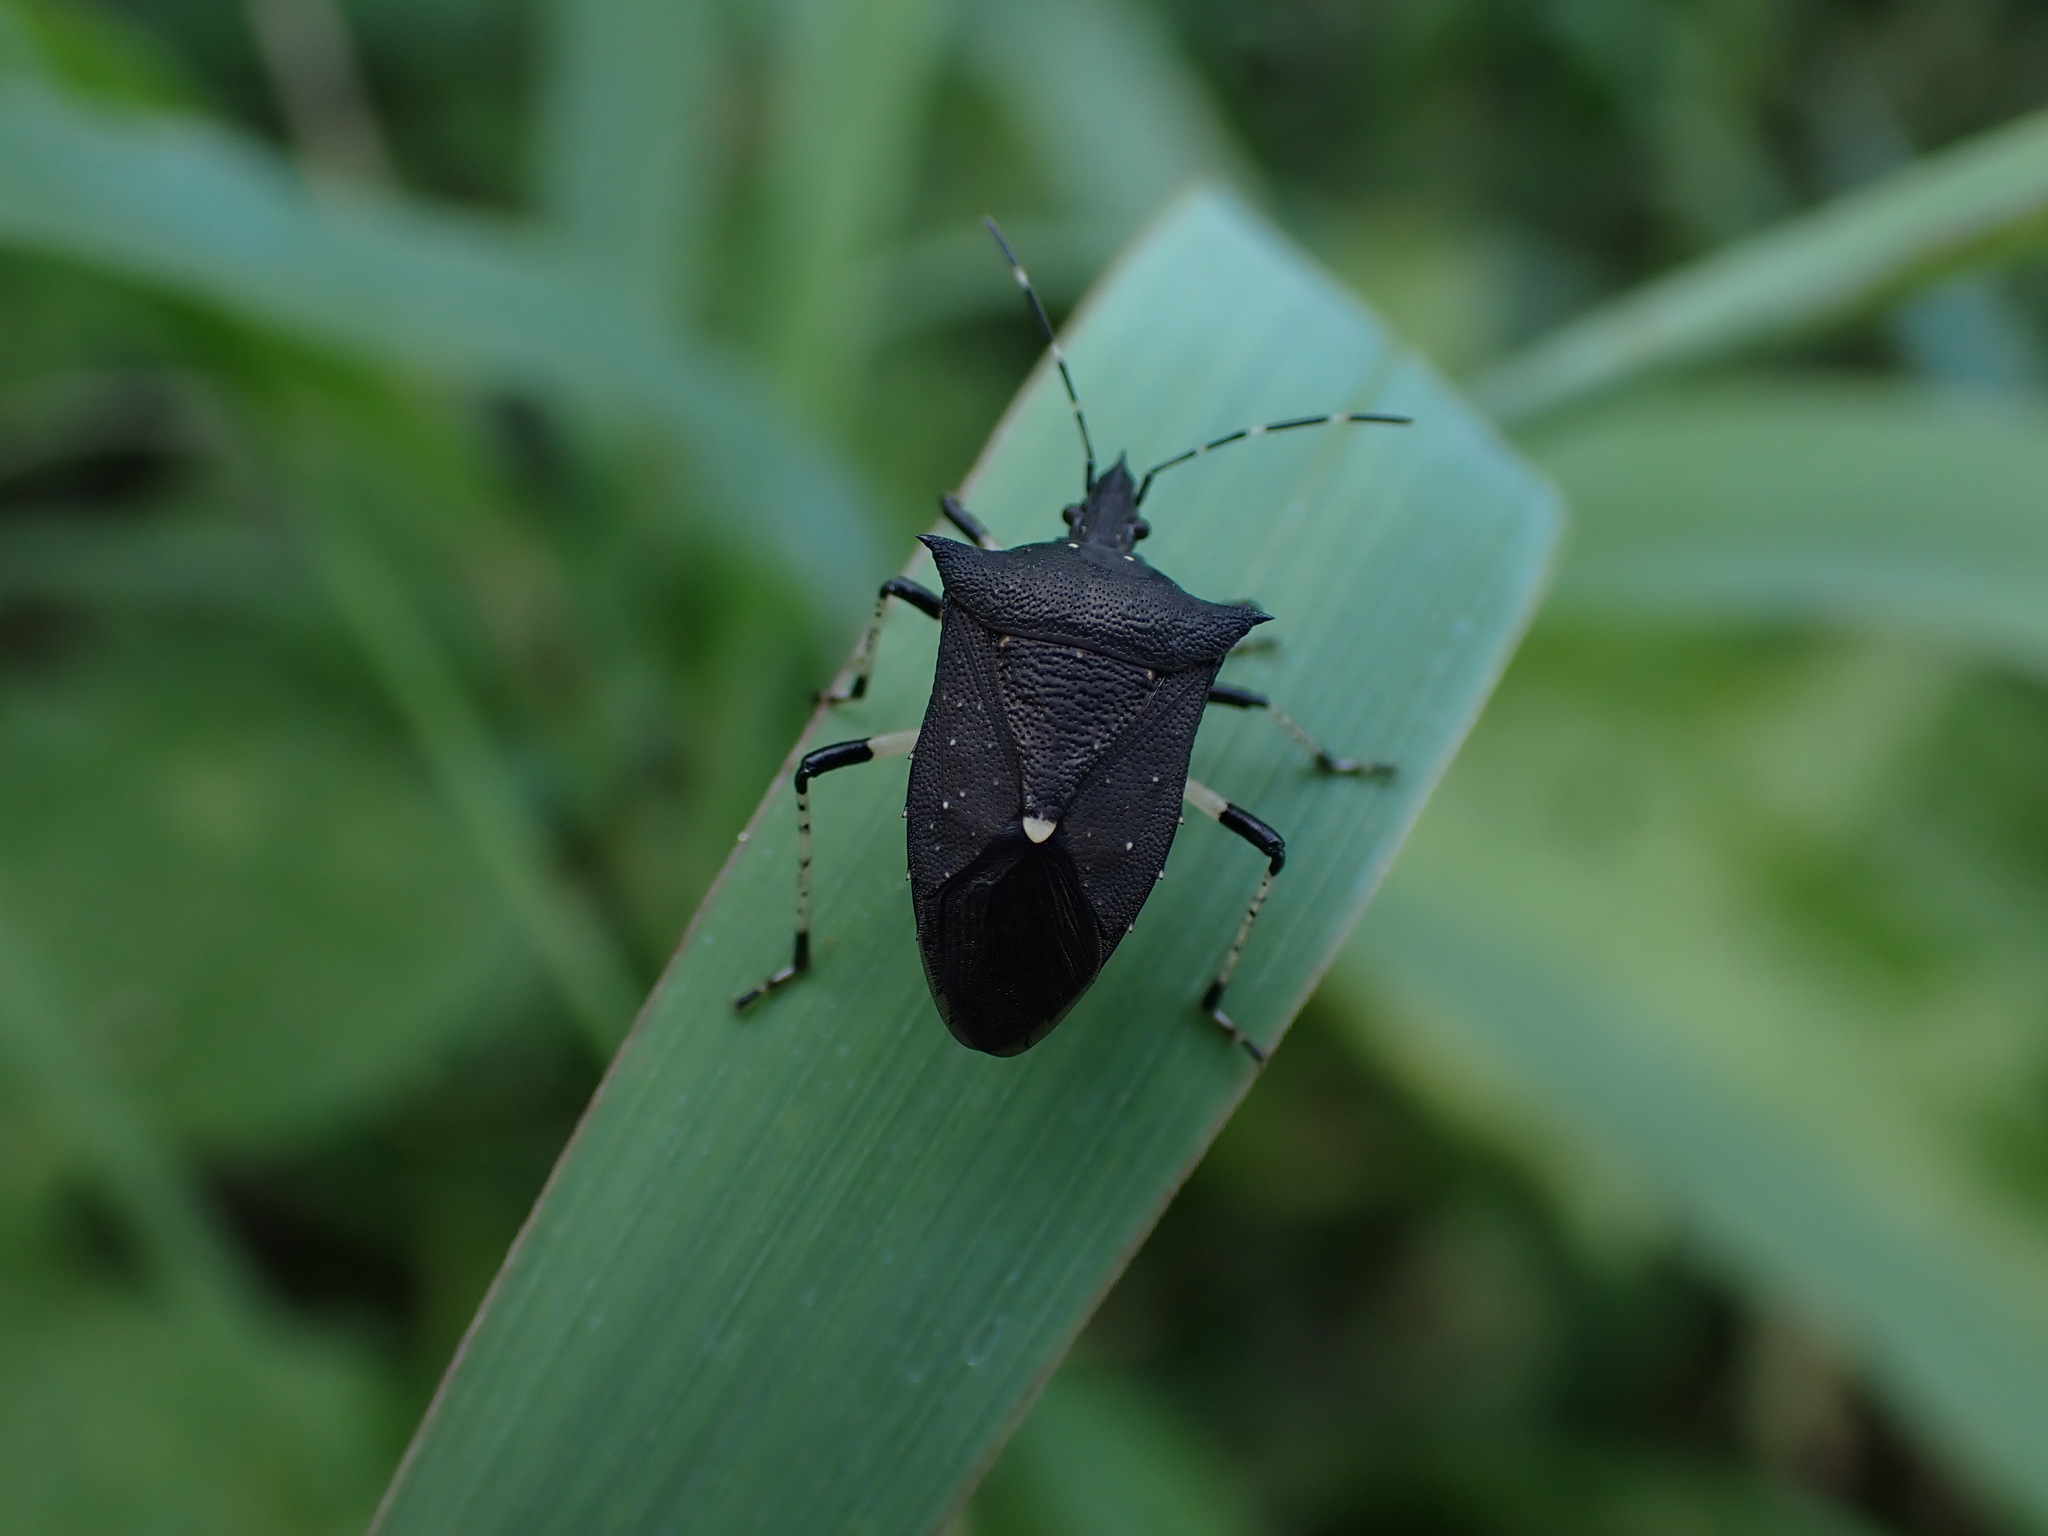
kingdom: Animalia
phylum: Arthropoda
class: Insecta
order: Hemiptera
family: Pentatomidae
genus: Proxys
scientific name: Proxys punctulatus
